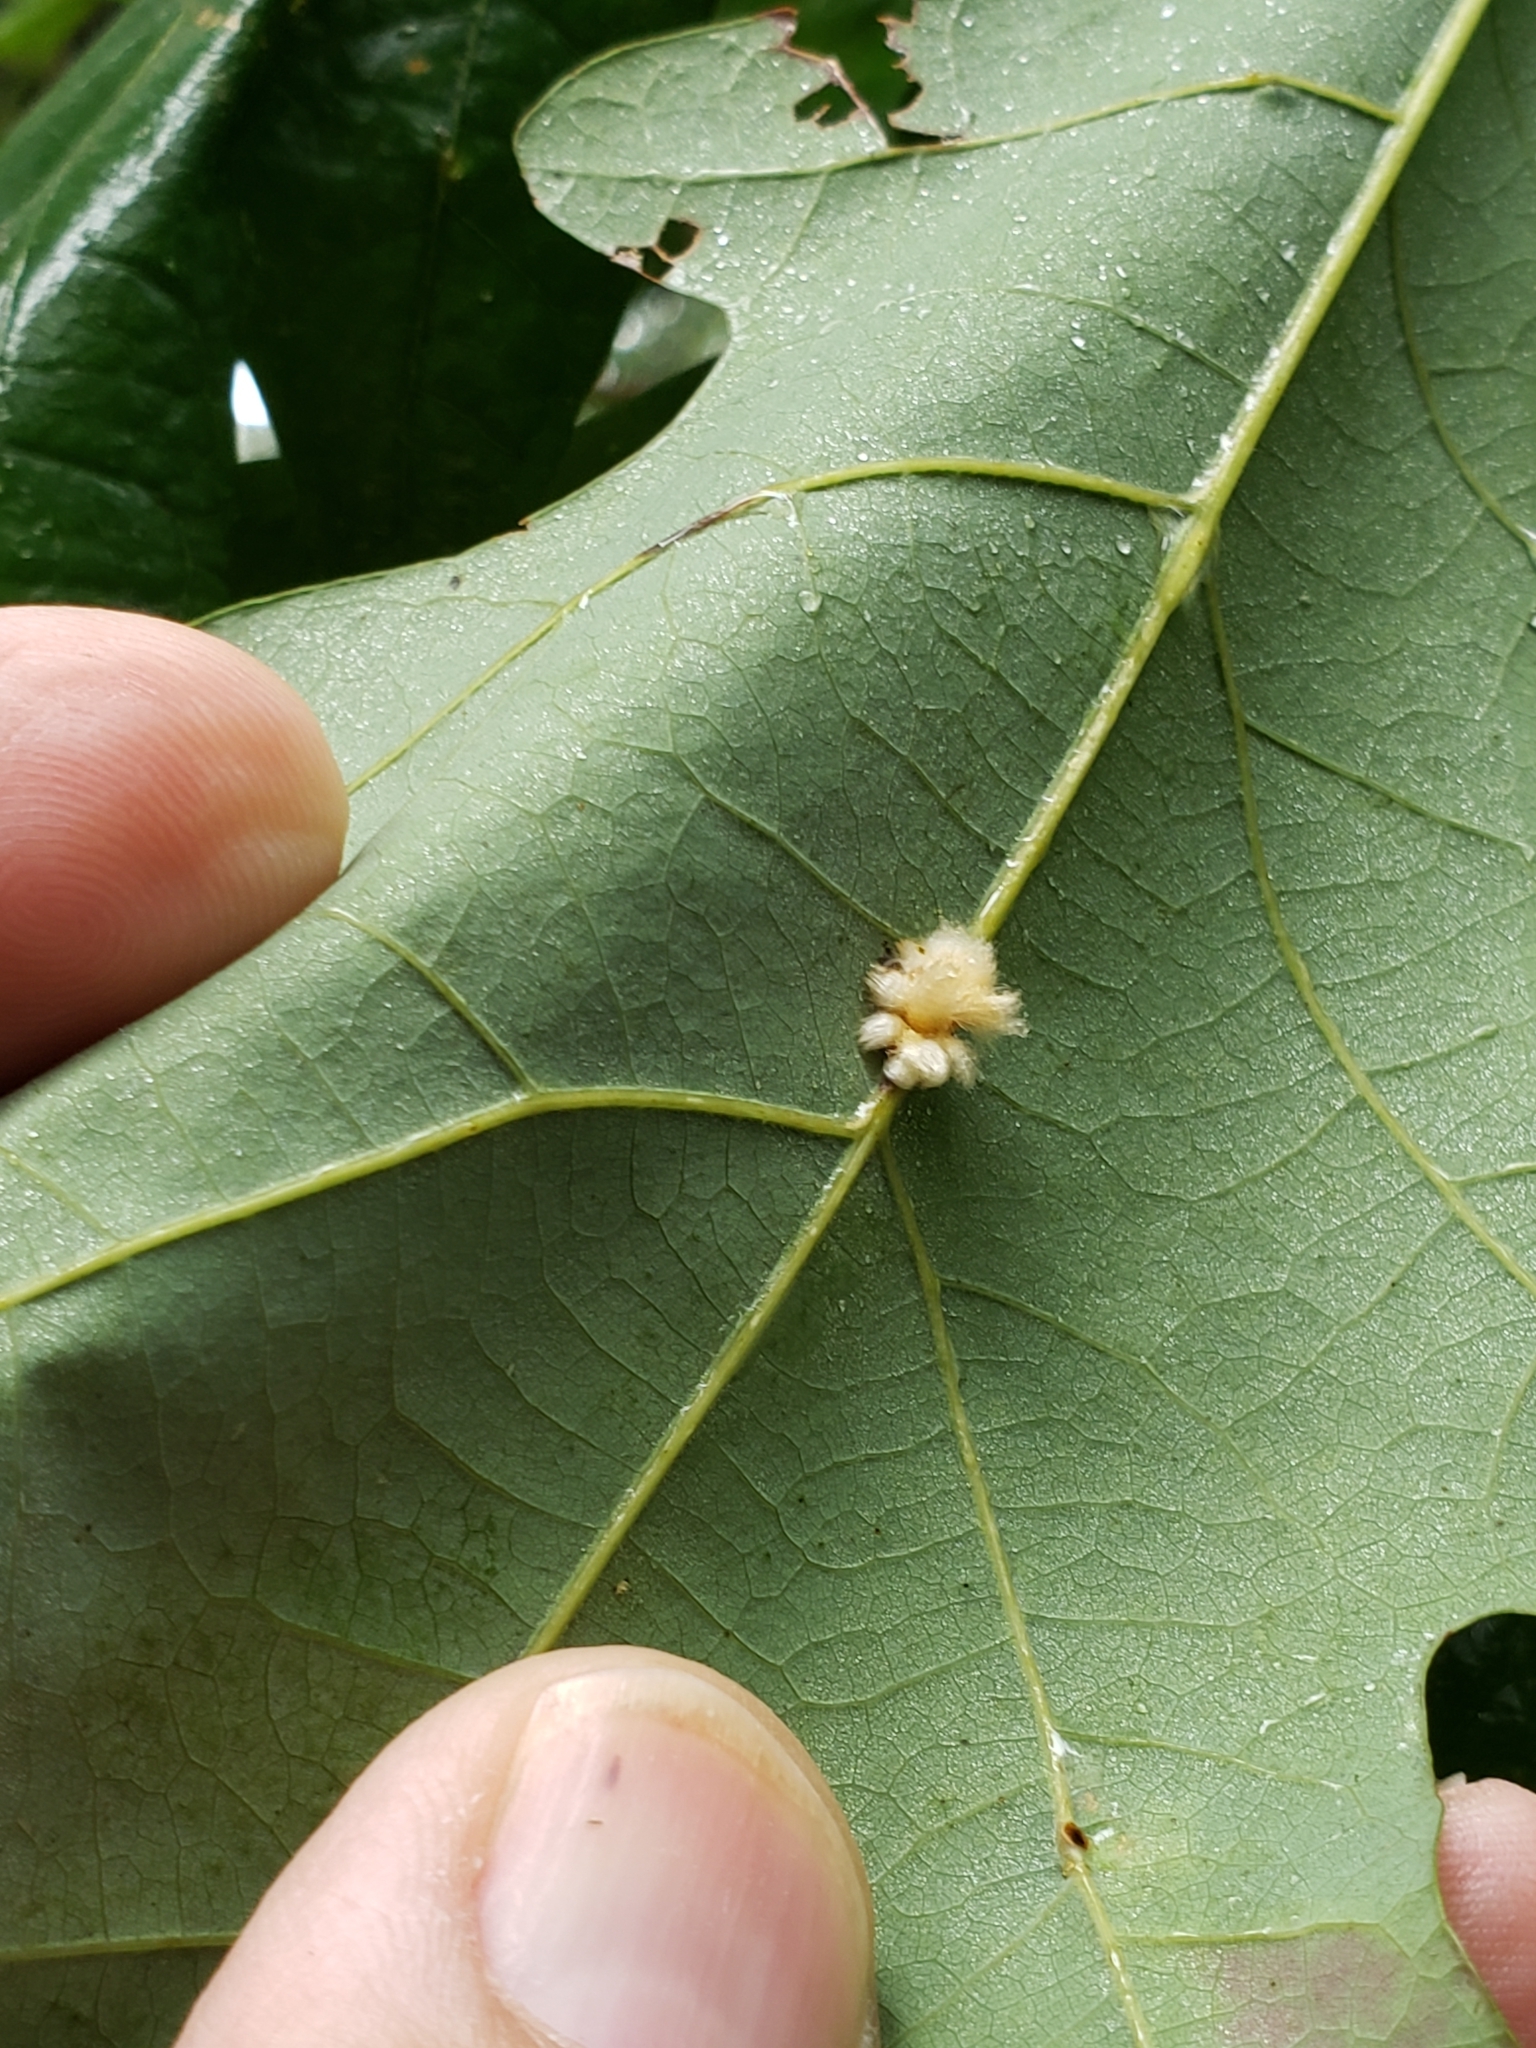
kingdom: Animalia
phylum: Arthropoda
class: Insecta
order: Hymenoptera
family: Cynipidae
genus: Andricus
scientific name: Andricus Druon ignotum
